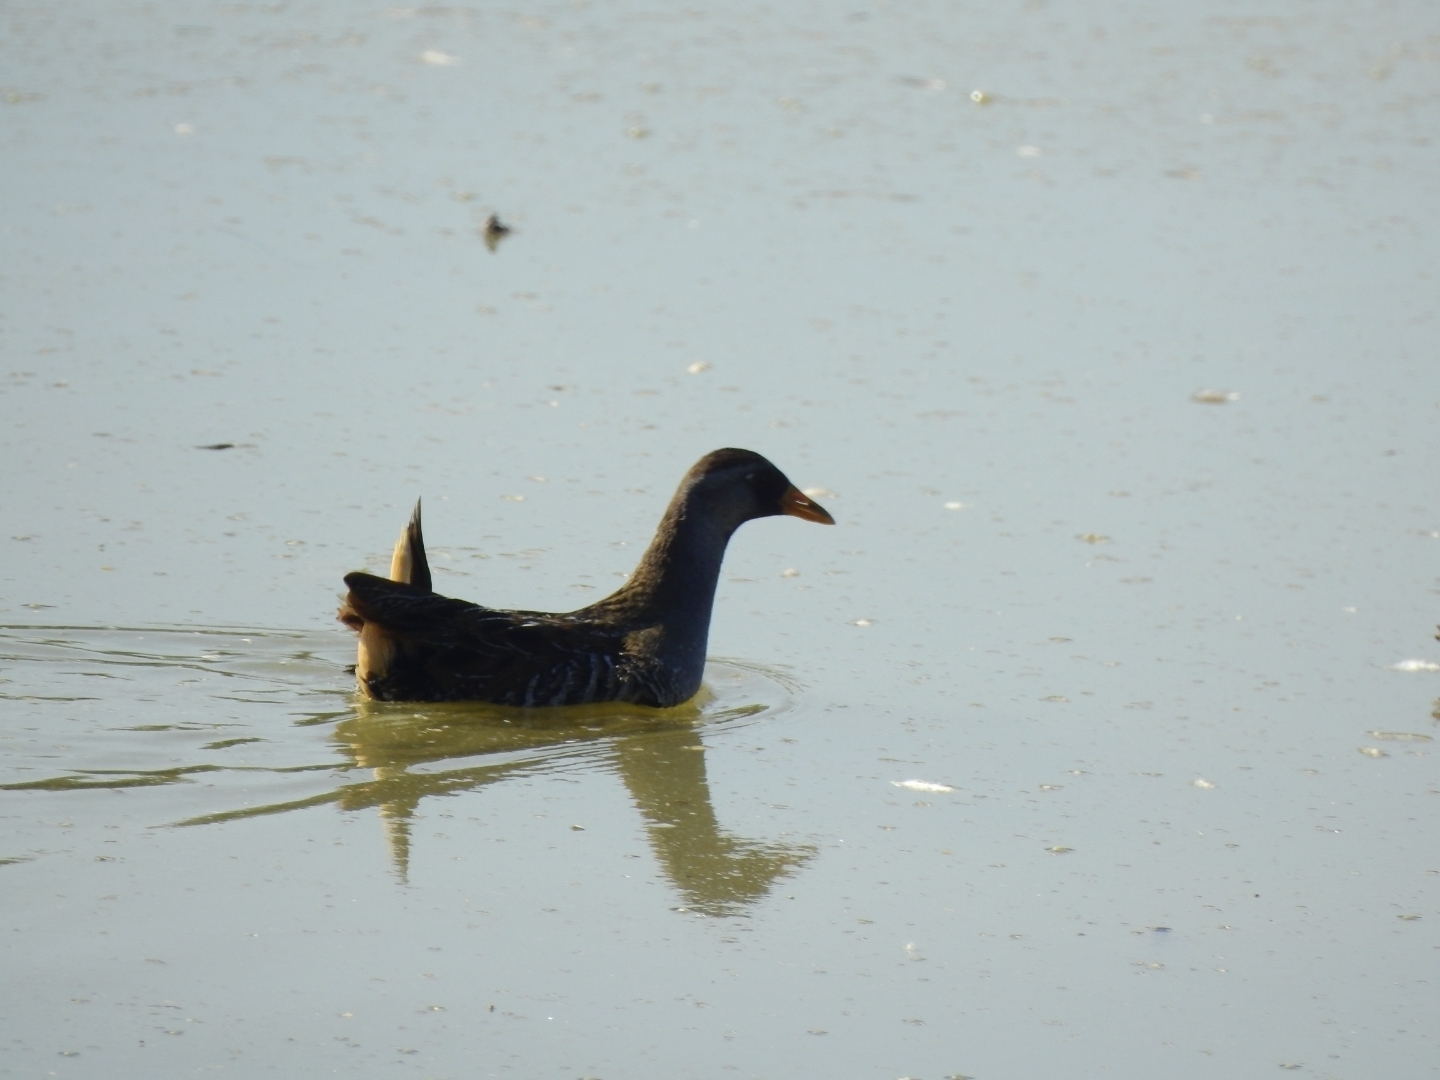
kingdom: Animalia
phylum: Chordata
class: Aves
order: Gruiformes
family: Rallidae
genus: Porzana
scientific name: Porzana carolina
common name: Sora
